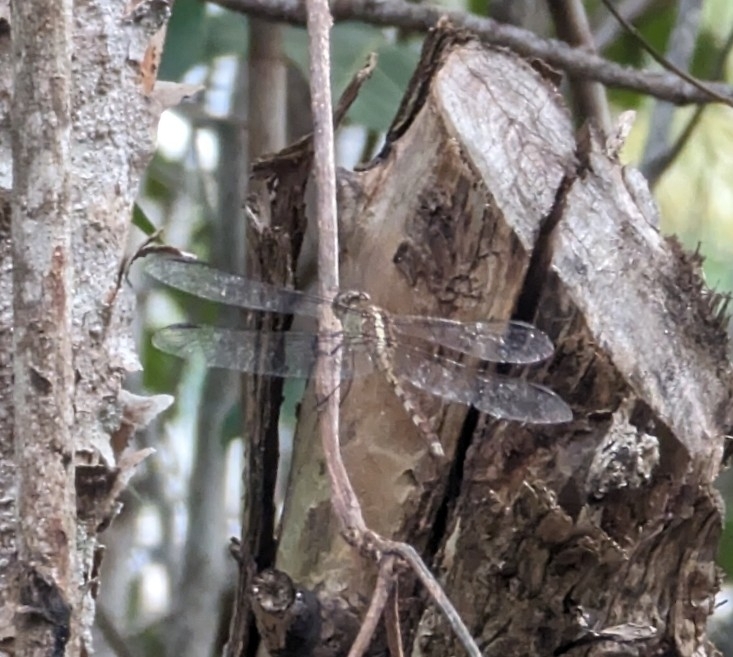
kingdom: Animalia
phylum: Arthropoda
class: Insecta
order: Odonata
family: Libellulidae
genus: Erythrodiplax
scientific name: Erythrodiplax umbrata
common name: Band-winged dragonlet
